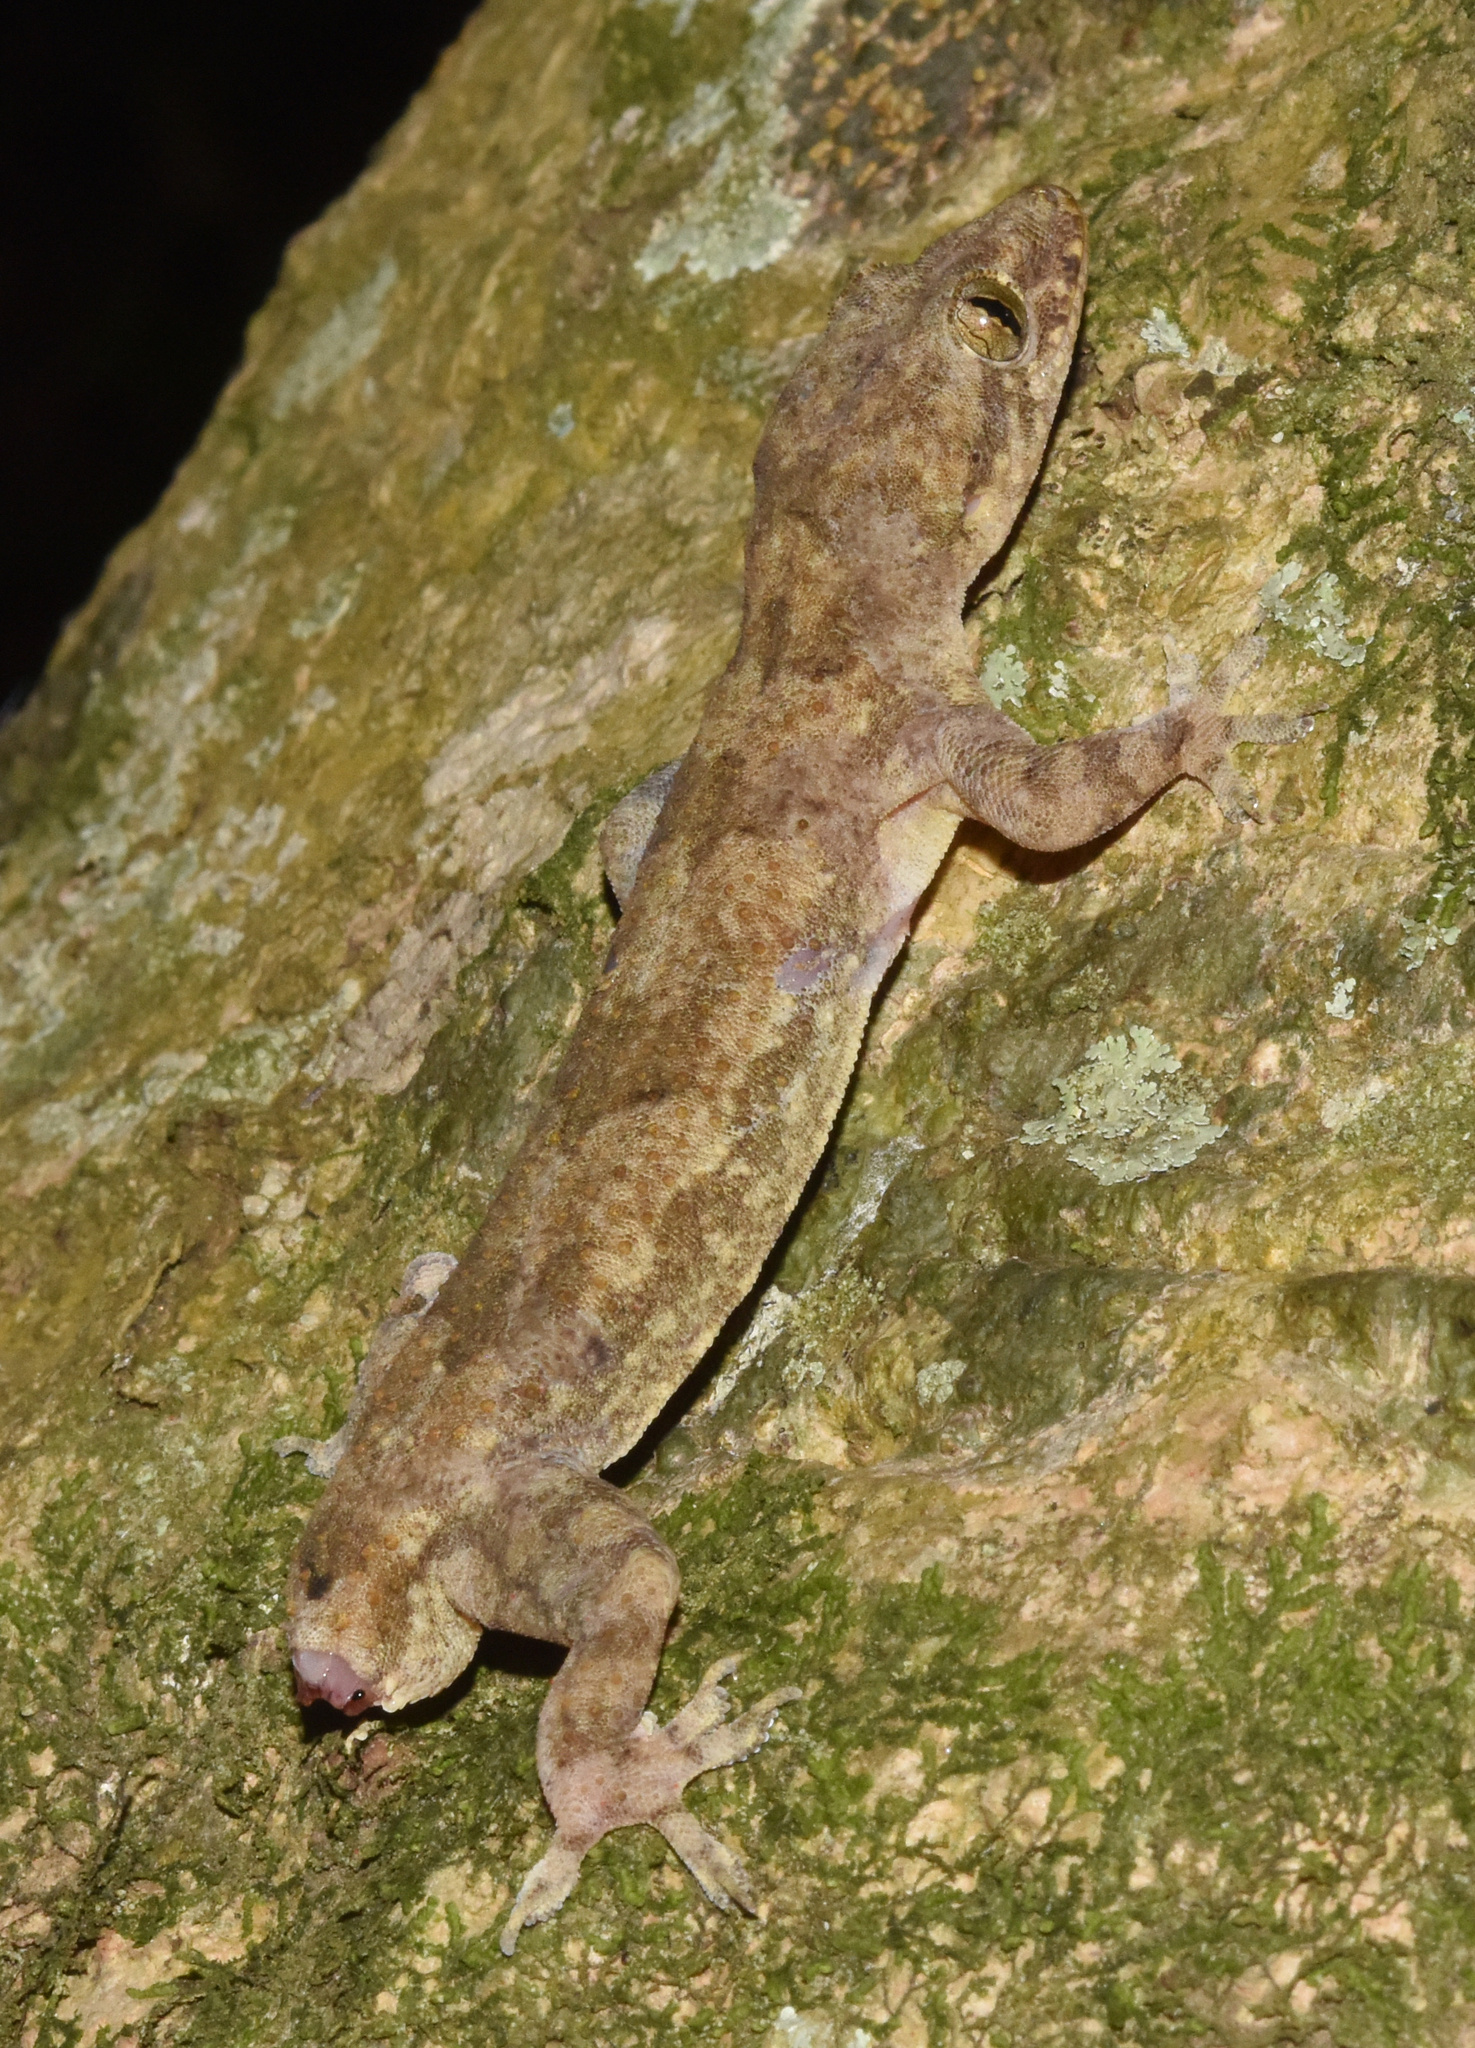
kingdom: Animalia
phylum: Chordata
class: Squamata
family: Gekkonidae
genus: Hemidactylus
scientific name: Hemidactylus mabouia
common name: House gecko
